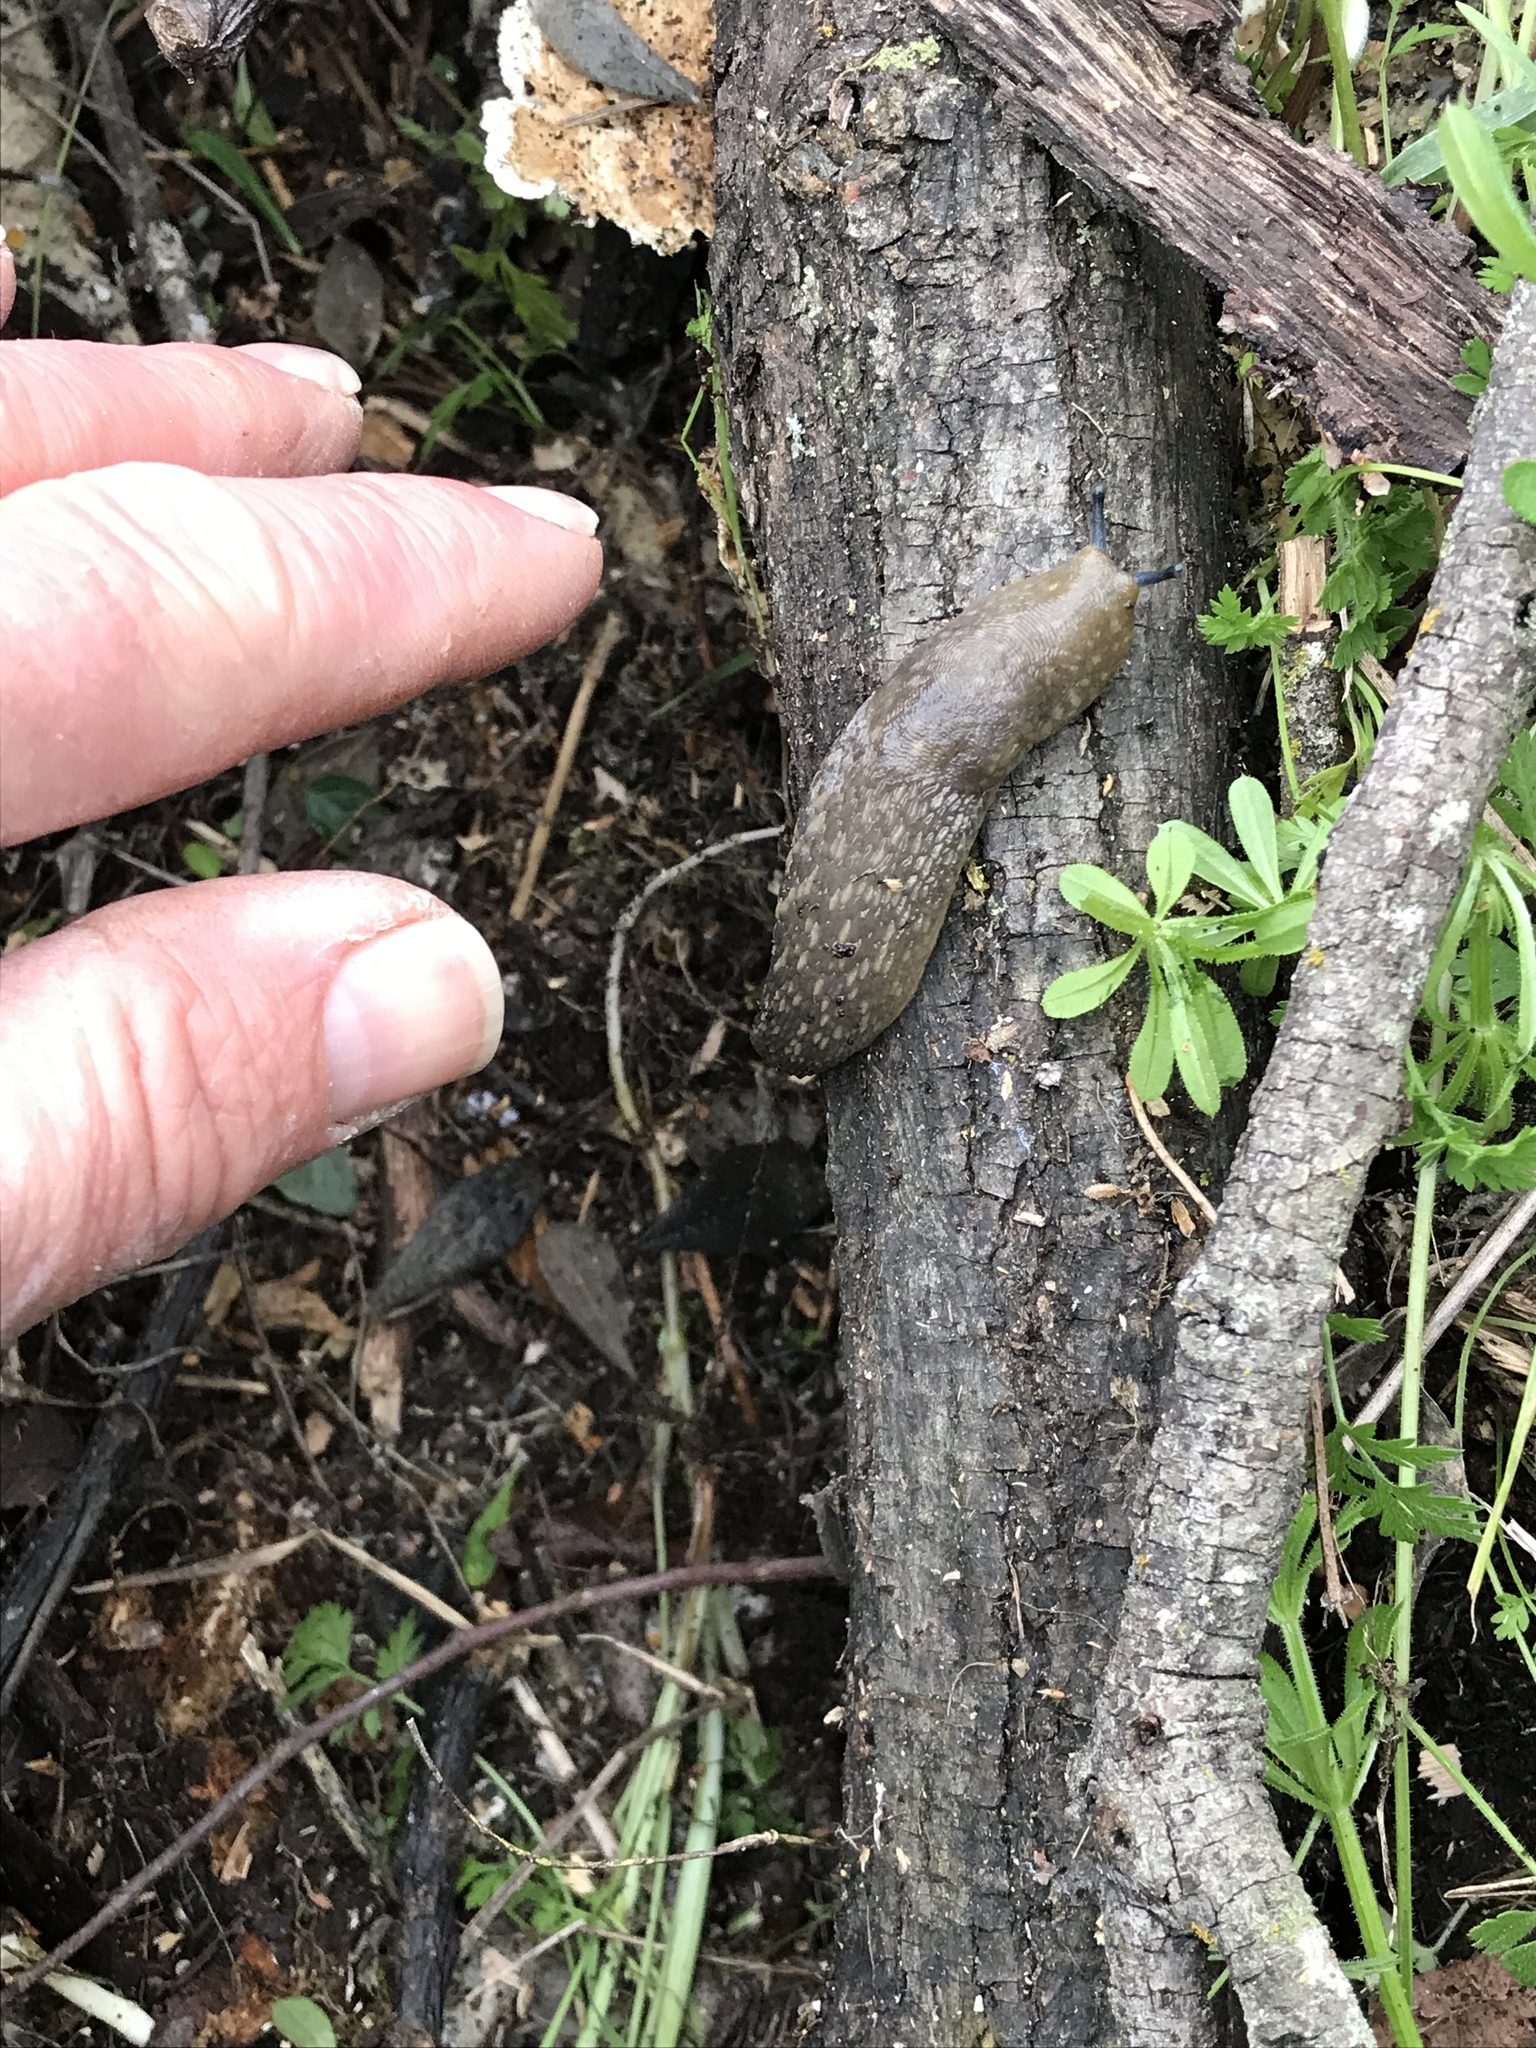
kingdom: Animalia
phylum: Mollusca
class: Gastropoda
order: Stylommatophora
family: Limacidae
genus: Limacus
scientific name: Limacus flavus
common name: Yellow gardenslug
